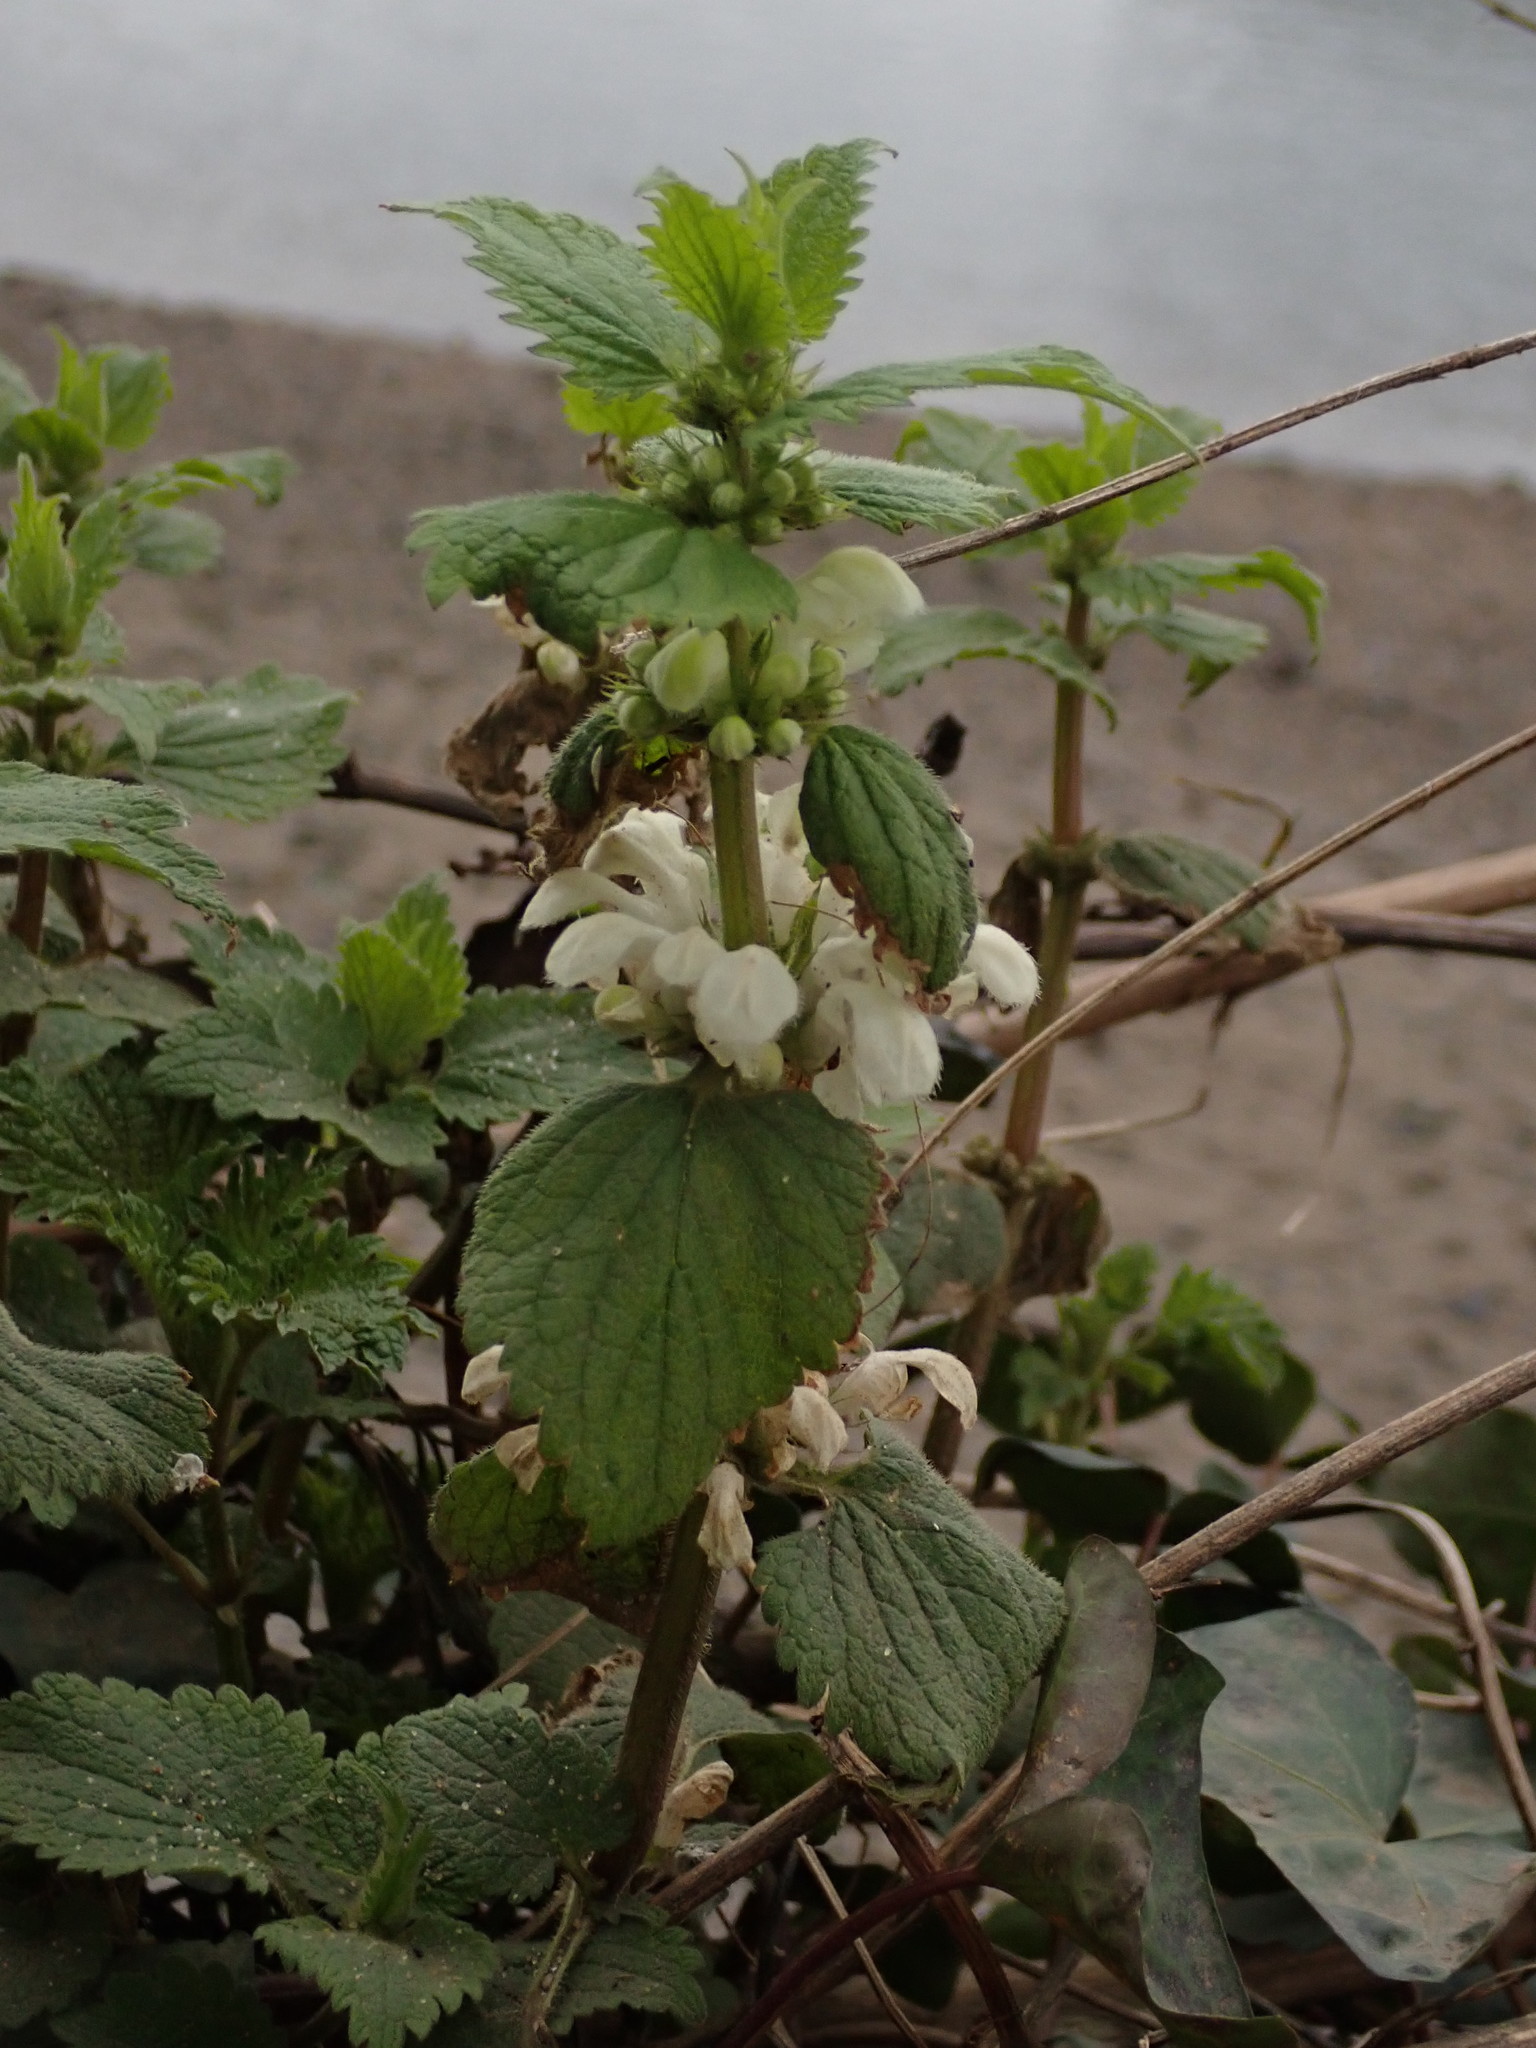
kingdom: Plantae
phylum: Tracheophyta
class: Magnoliopsida
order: Lamiales
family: Lamiaceae
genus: Lamium
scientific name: Lamium album
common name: White dead-nettle
